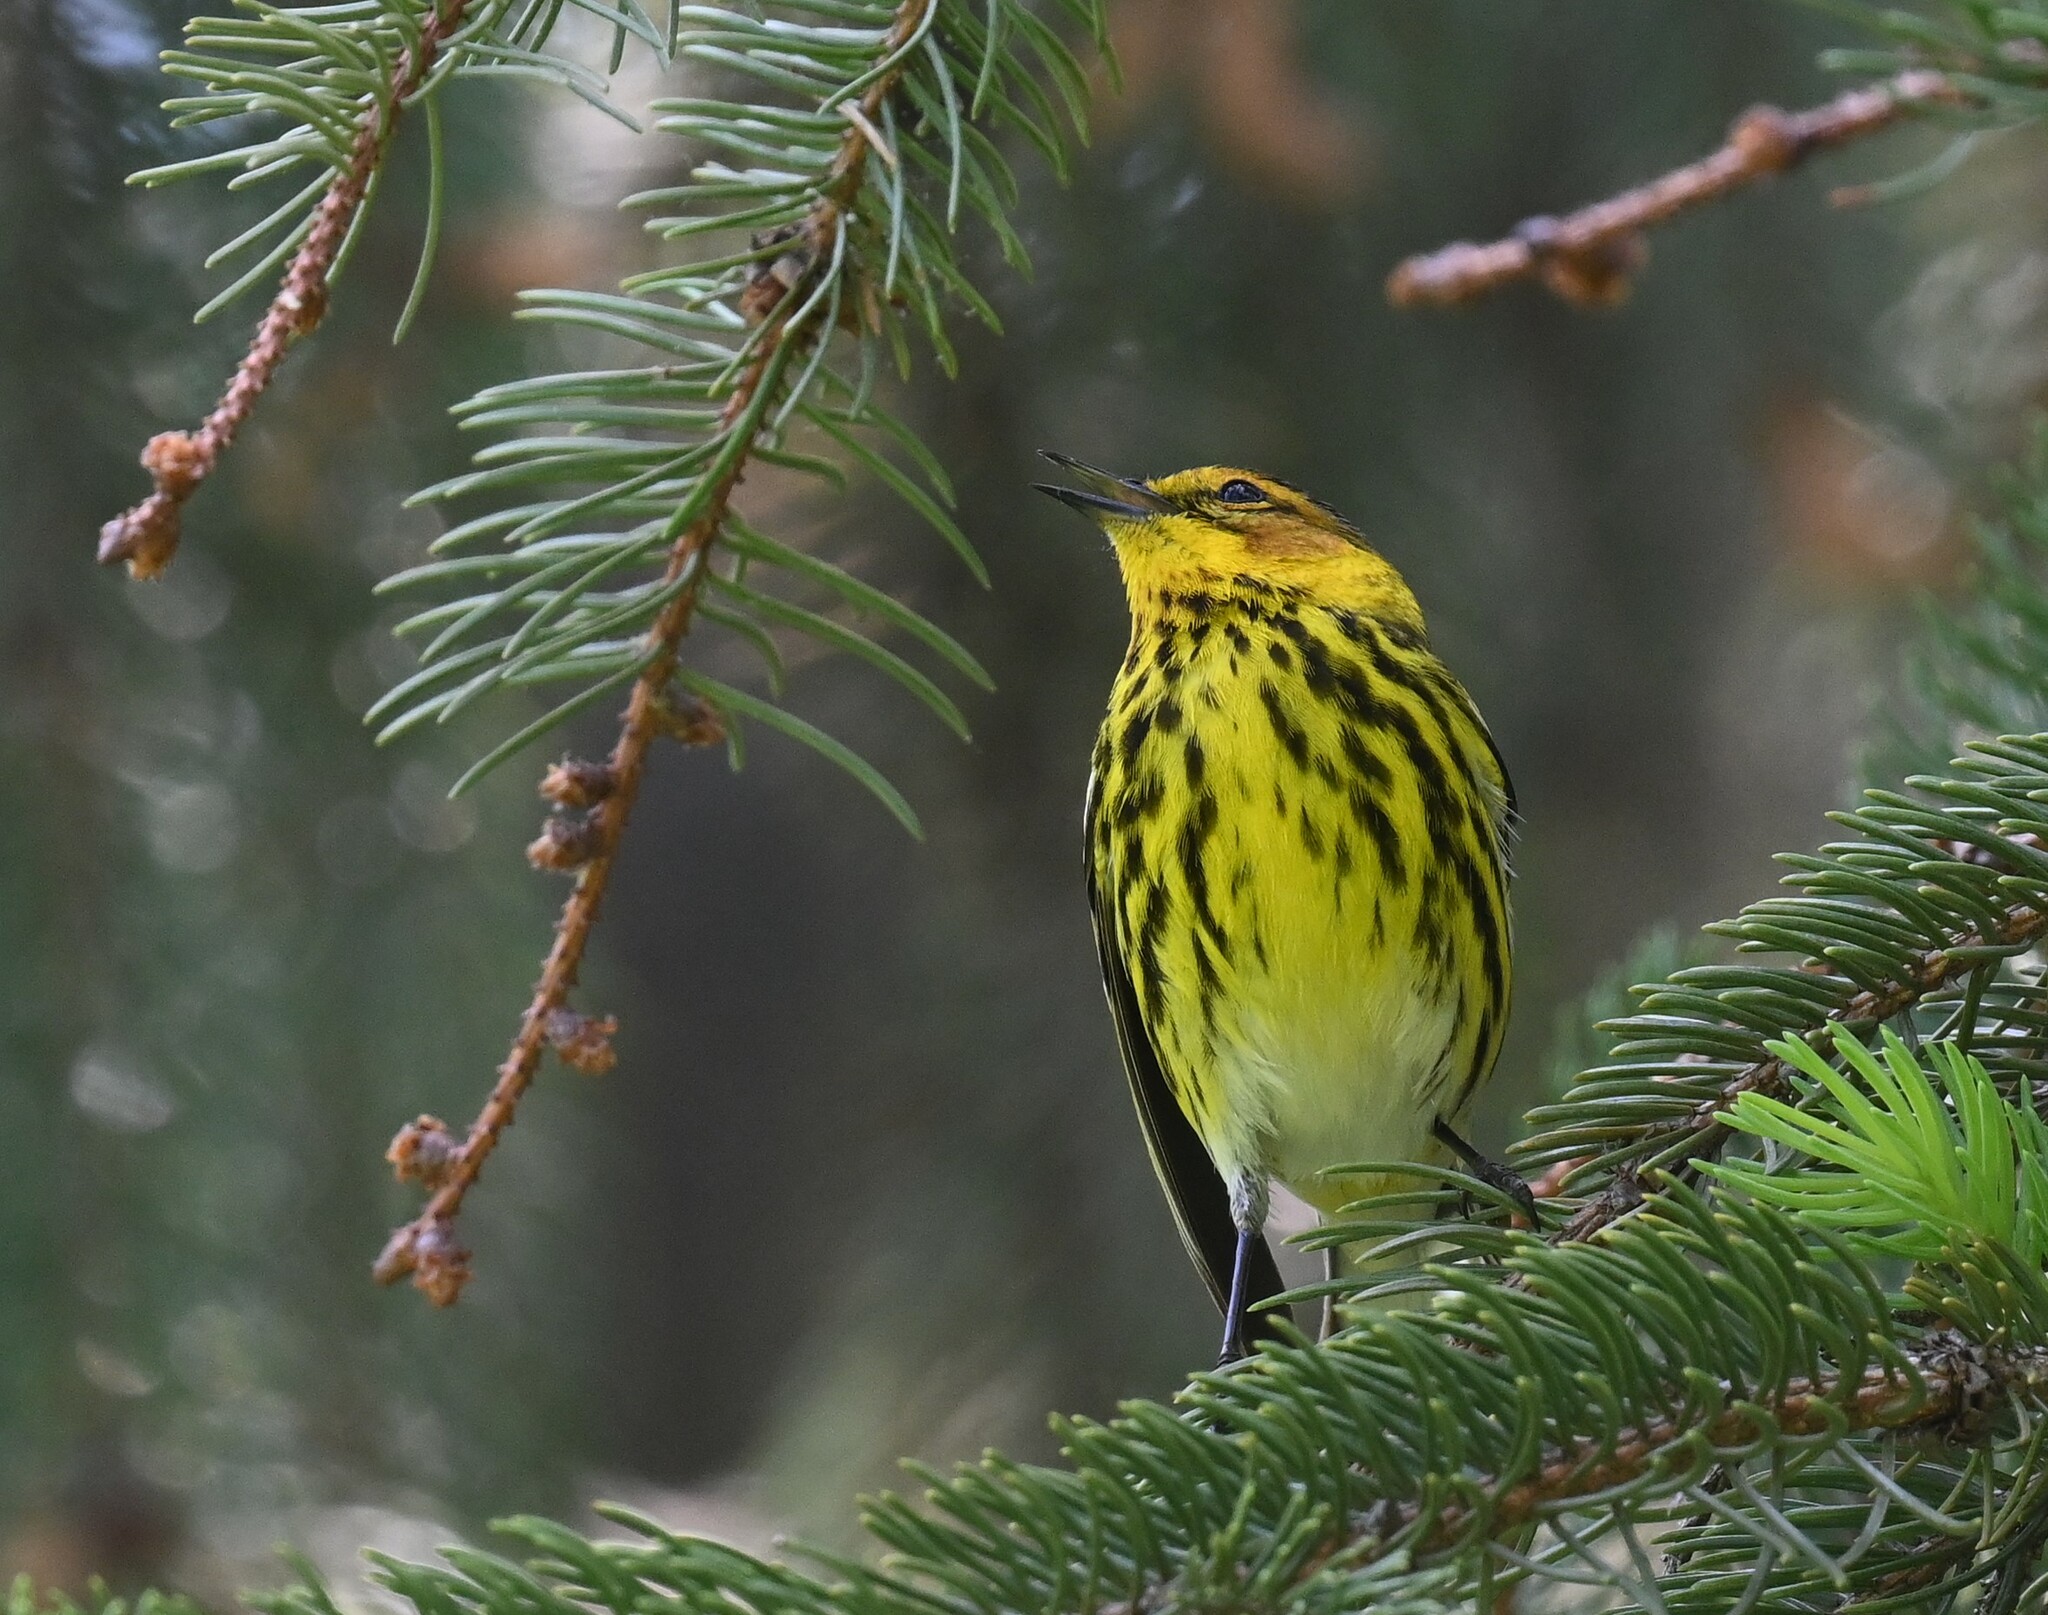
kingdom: Animalia
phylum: Chordata
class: Aves
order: Passeriformes
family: Parulidae
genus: Setophaga
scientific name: Setophaga tigrina
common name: Cape may warbler
